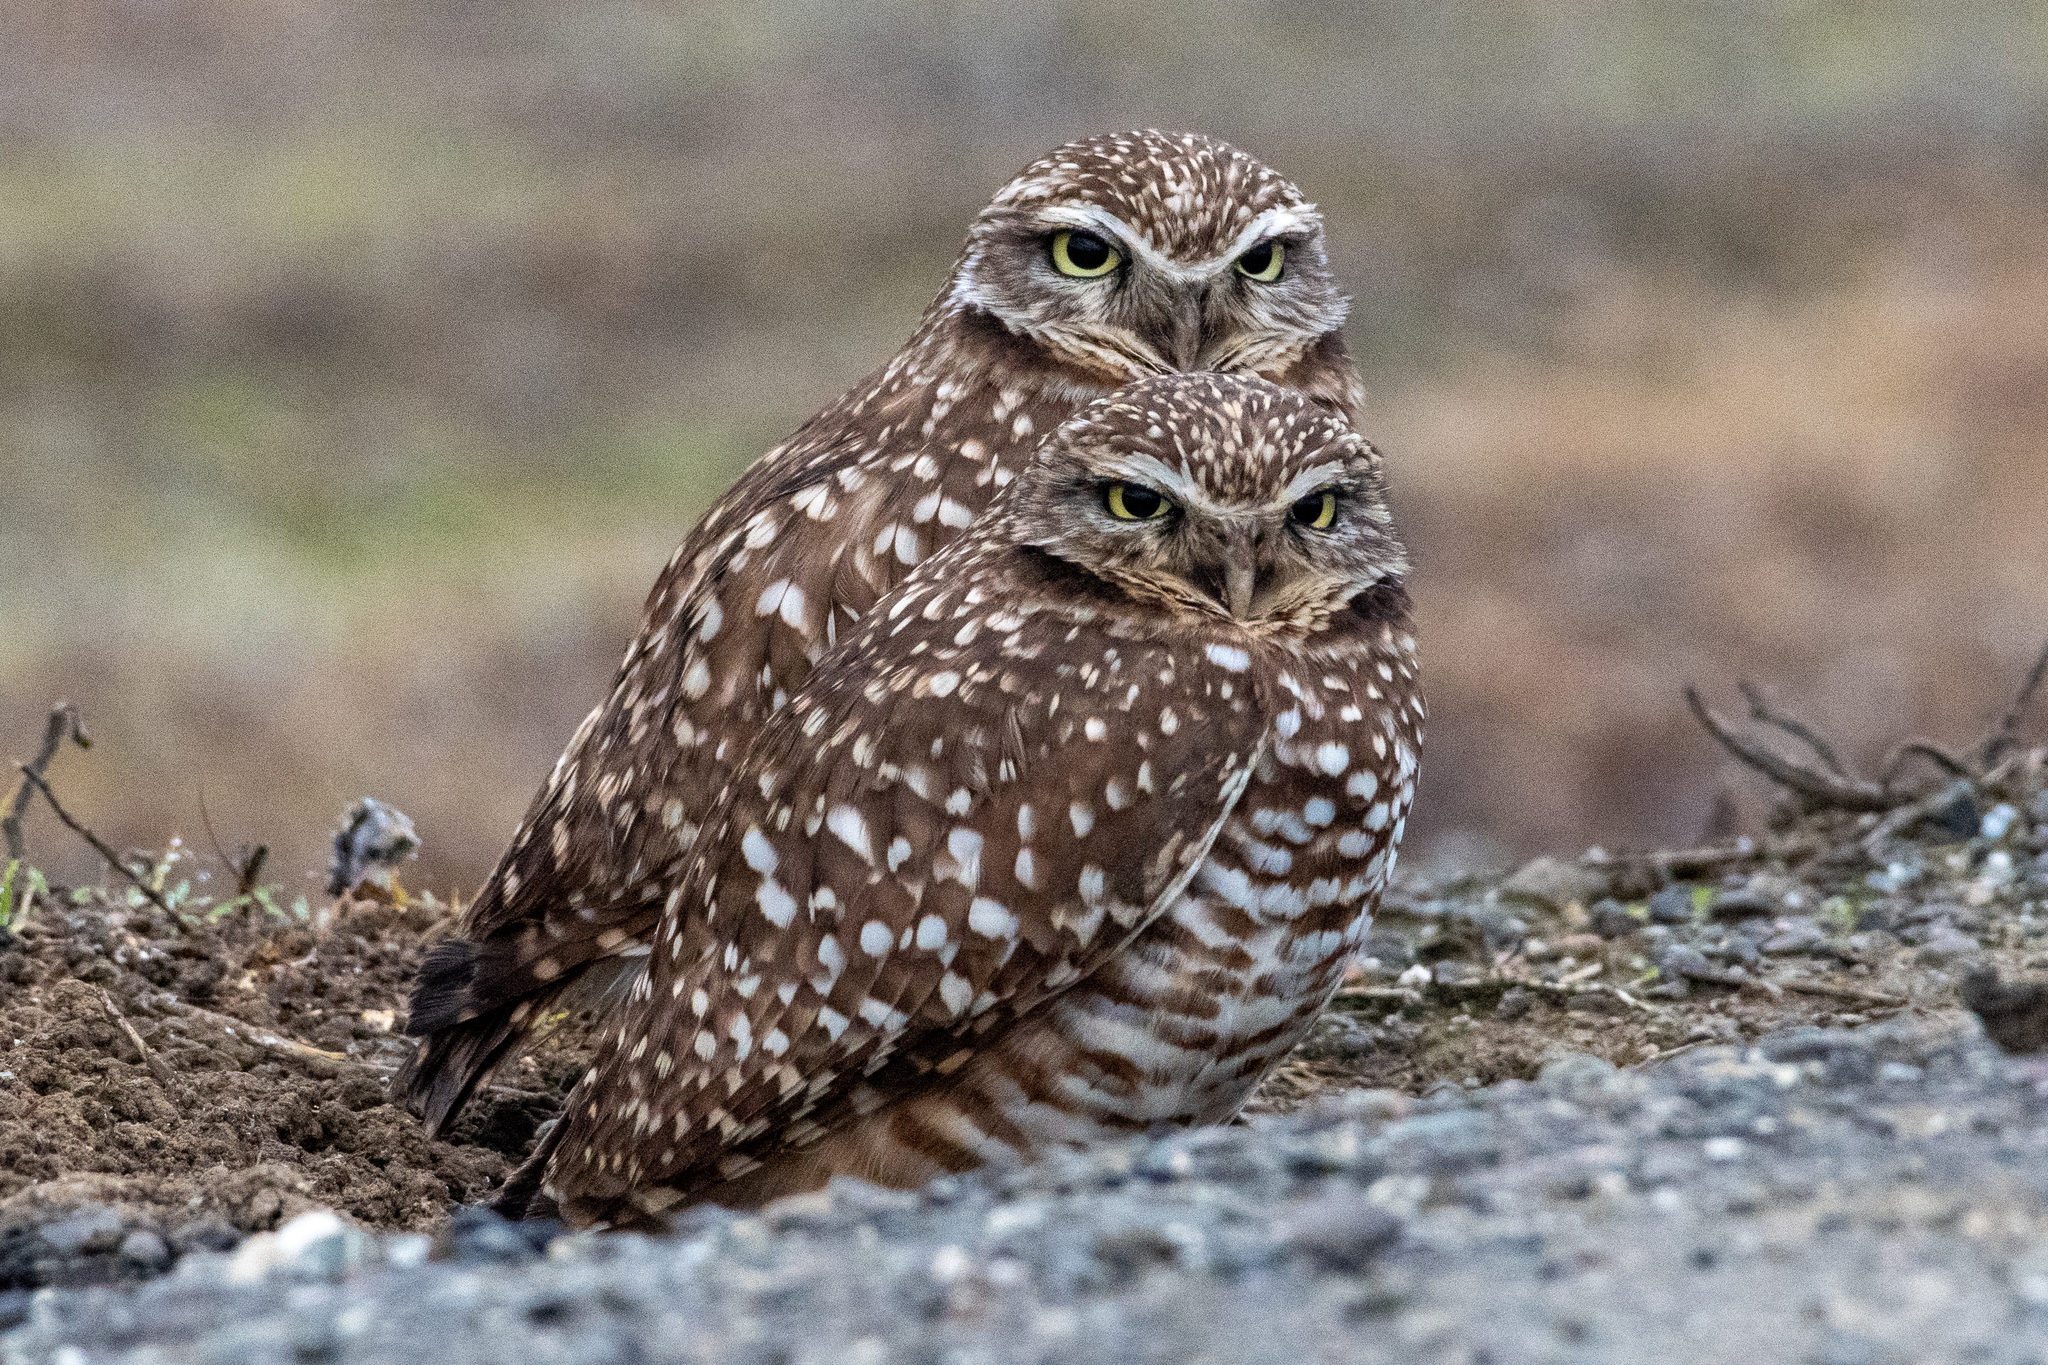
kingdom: Animalia
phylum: Chordata
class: Aves
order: Strigiformes
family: Strigidae
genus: Athene
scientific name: Athene cunicularia
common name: Burrowing owl
